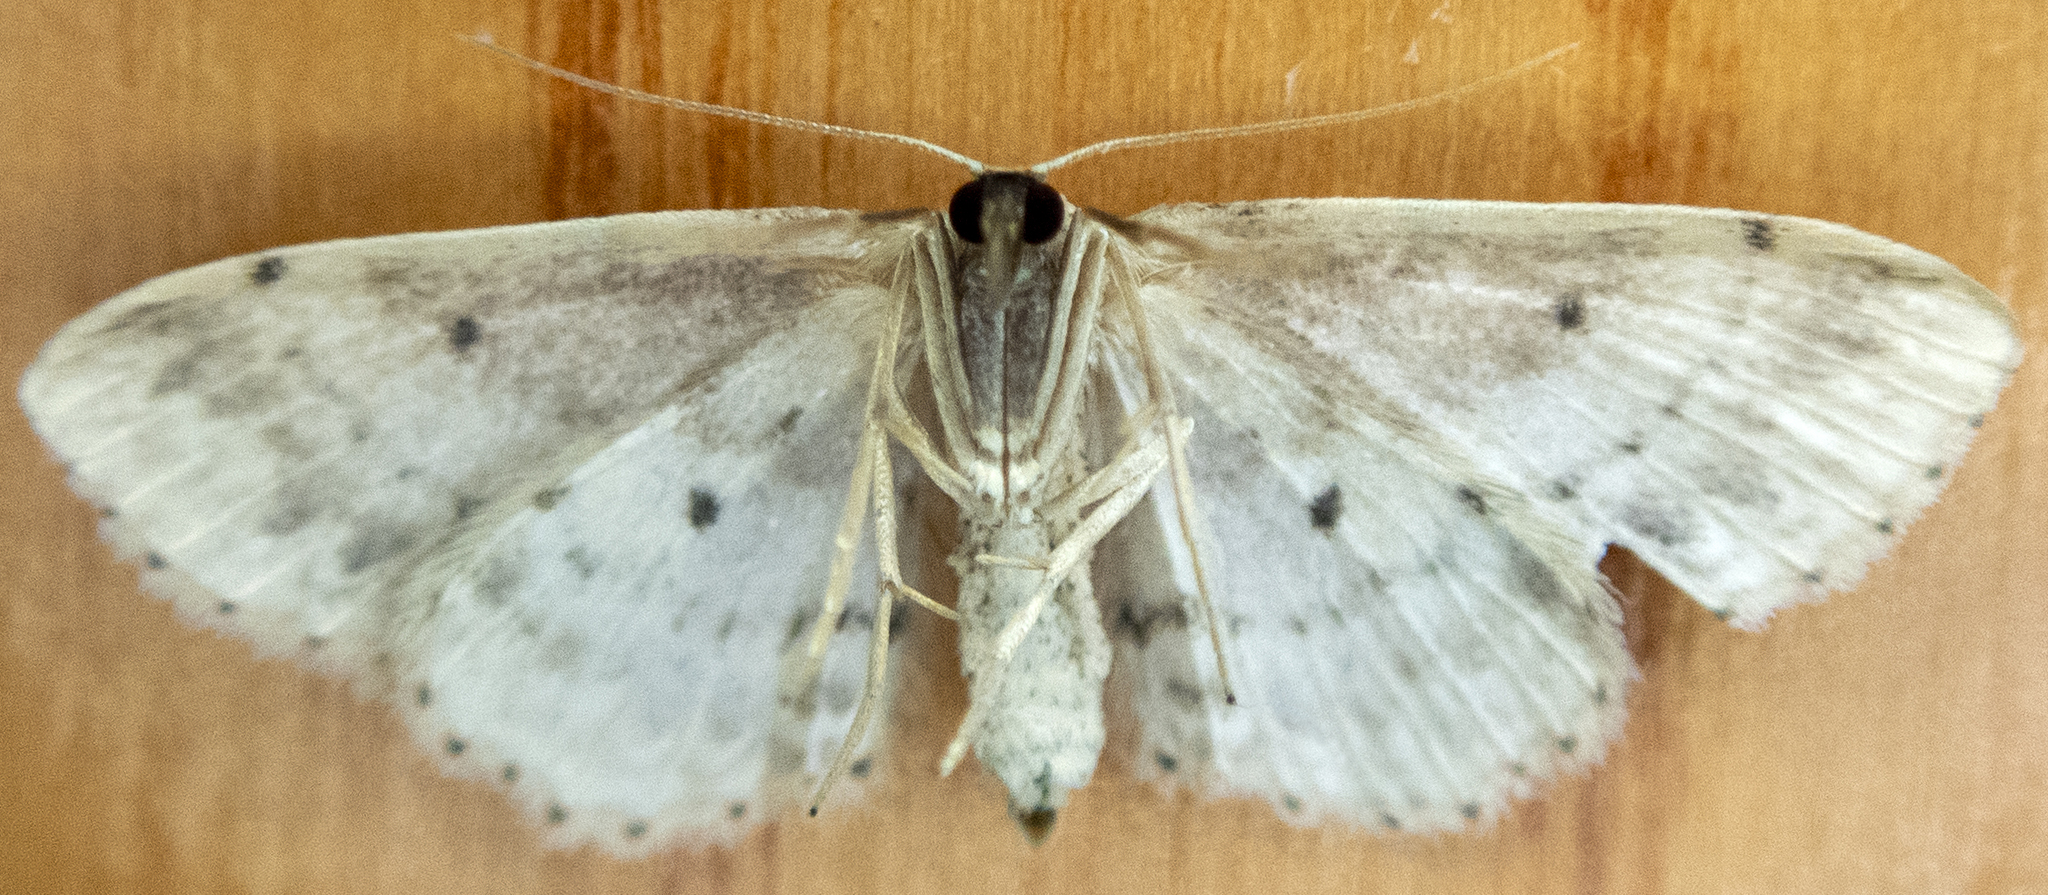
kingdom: Animalia
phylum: Arthropoda
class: Insecta
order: Lepidoptera
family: Geometridae
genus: Idaea
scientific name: Idaea dimidiata
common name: Single-dotted wave
